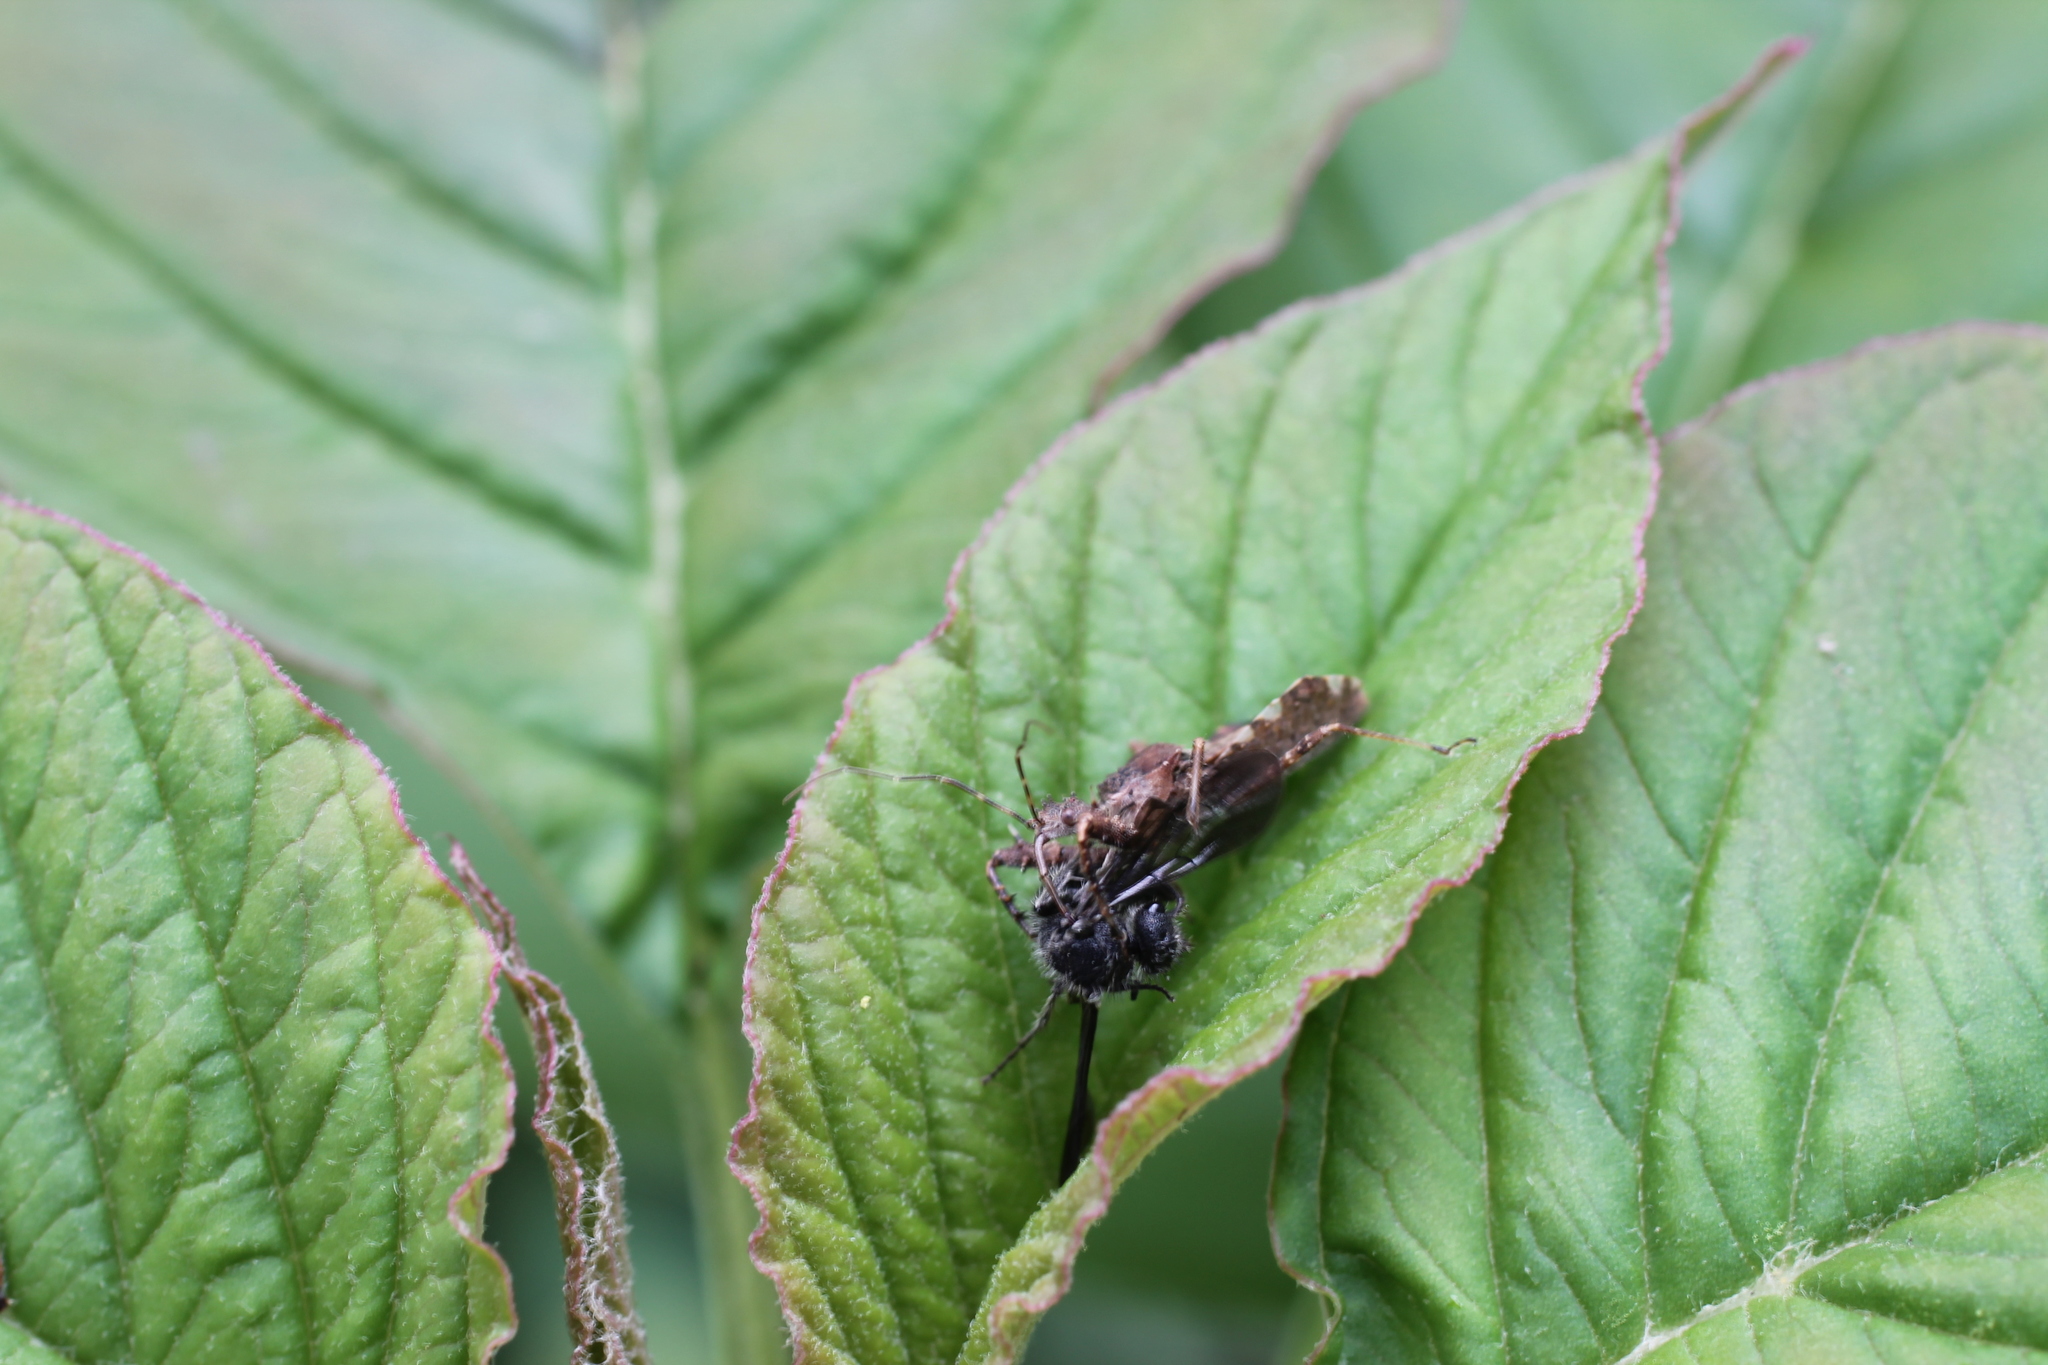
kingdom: Animalia
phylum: Arthropoda
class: Insecta
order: Hymenoptera
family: Mutillidae
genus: Dasymutilla
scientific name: Dasymutilla
